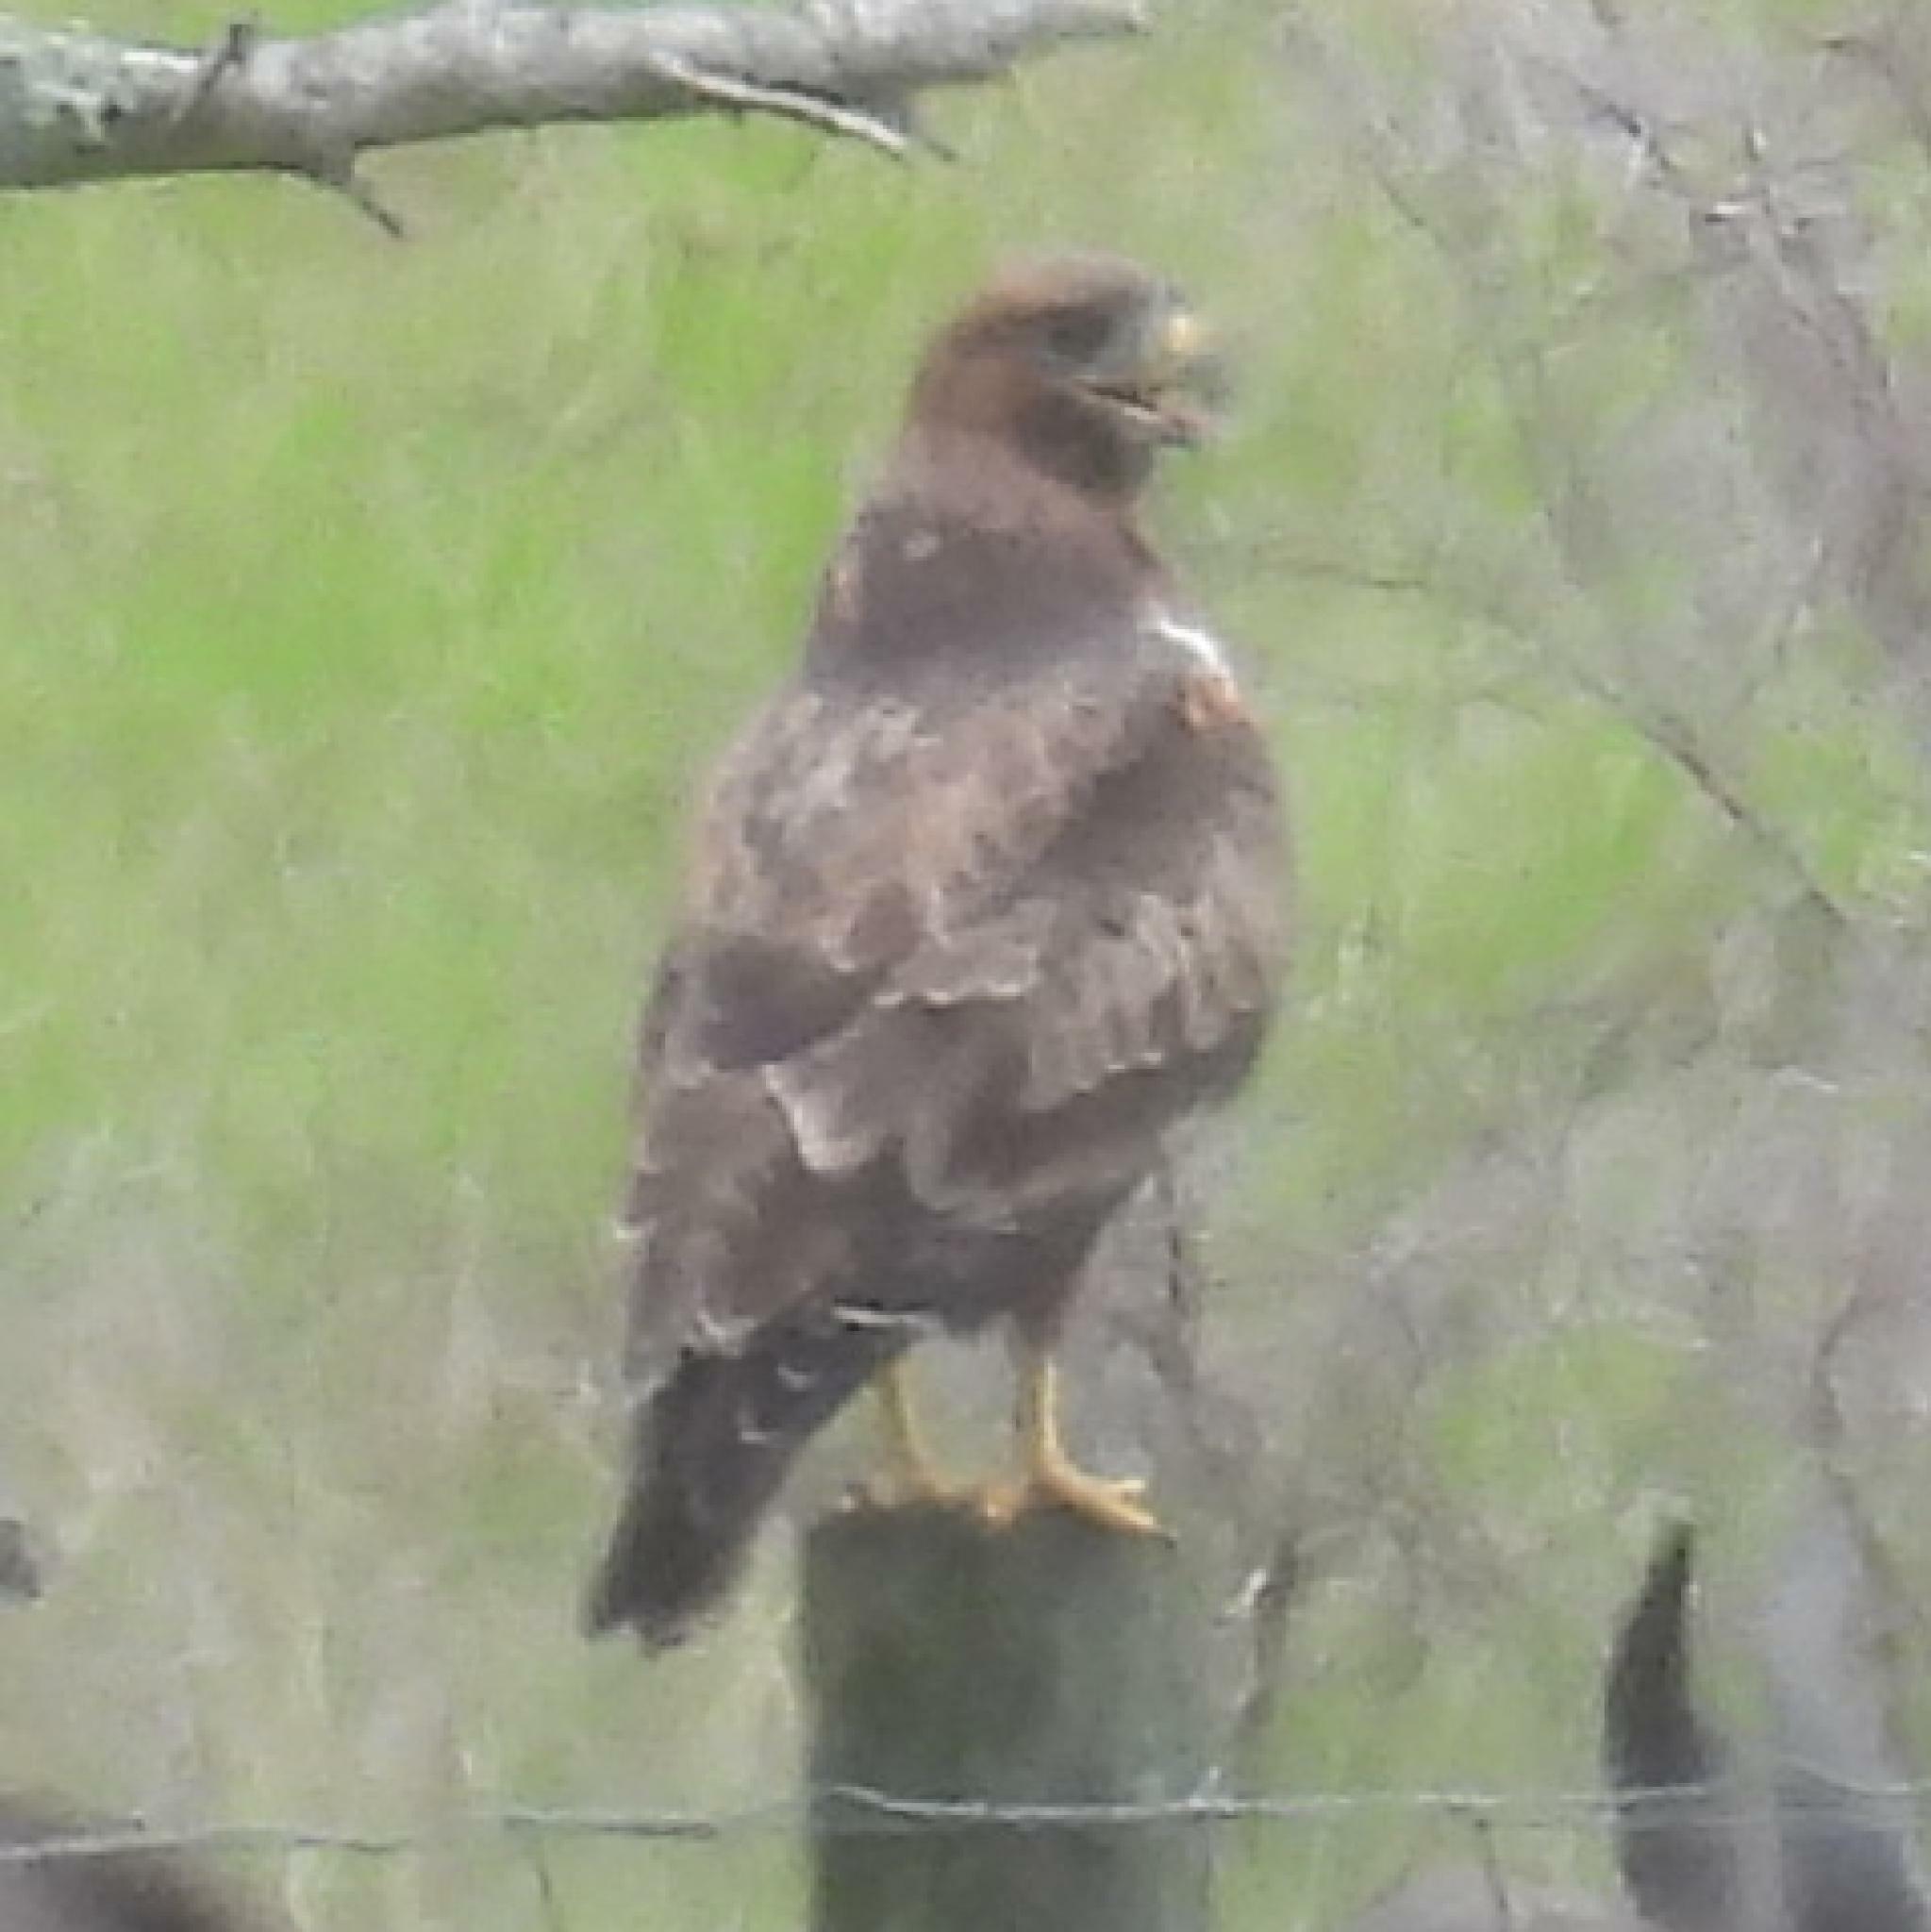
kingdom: Animalia
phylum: Chordata
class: Aves
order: Accipitriformes
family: Accipitridae
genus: Buteo
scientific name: Buteo rufofuscus
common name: Jackal buzzard
